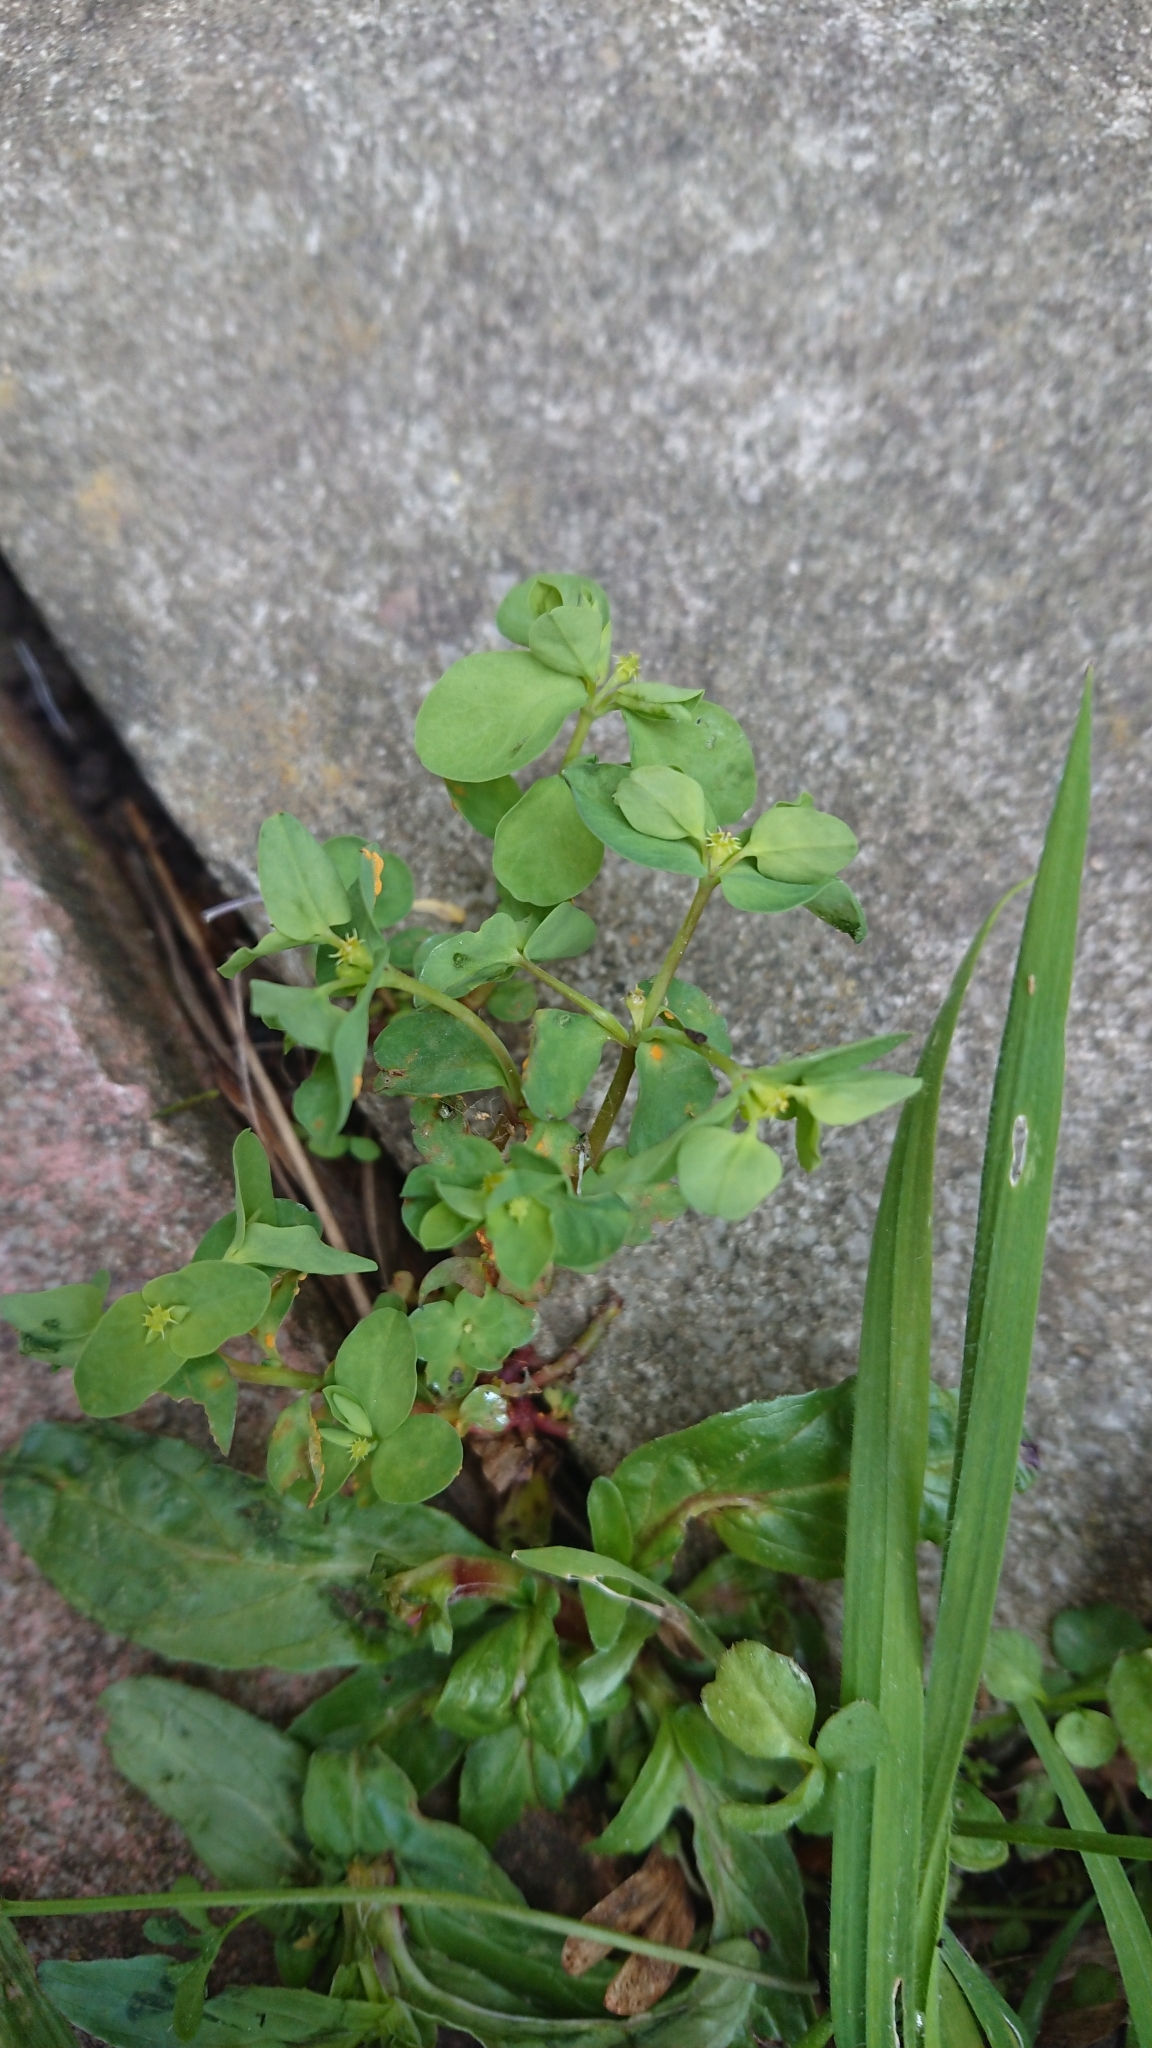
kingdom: Plantae
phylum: Tracheophyta
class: Magnoliopsida
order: Malpighiales
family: Euphorbiaceae
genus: Euphorbia
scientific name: Euphorbia peplus
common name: Petty spurge
